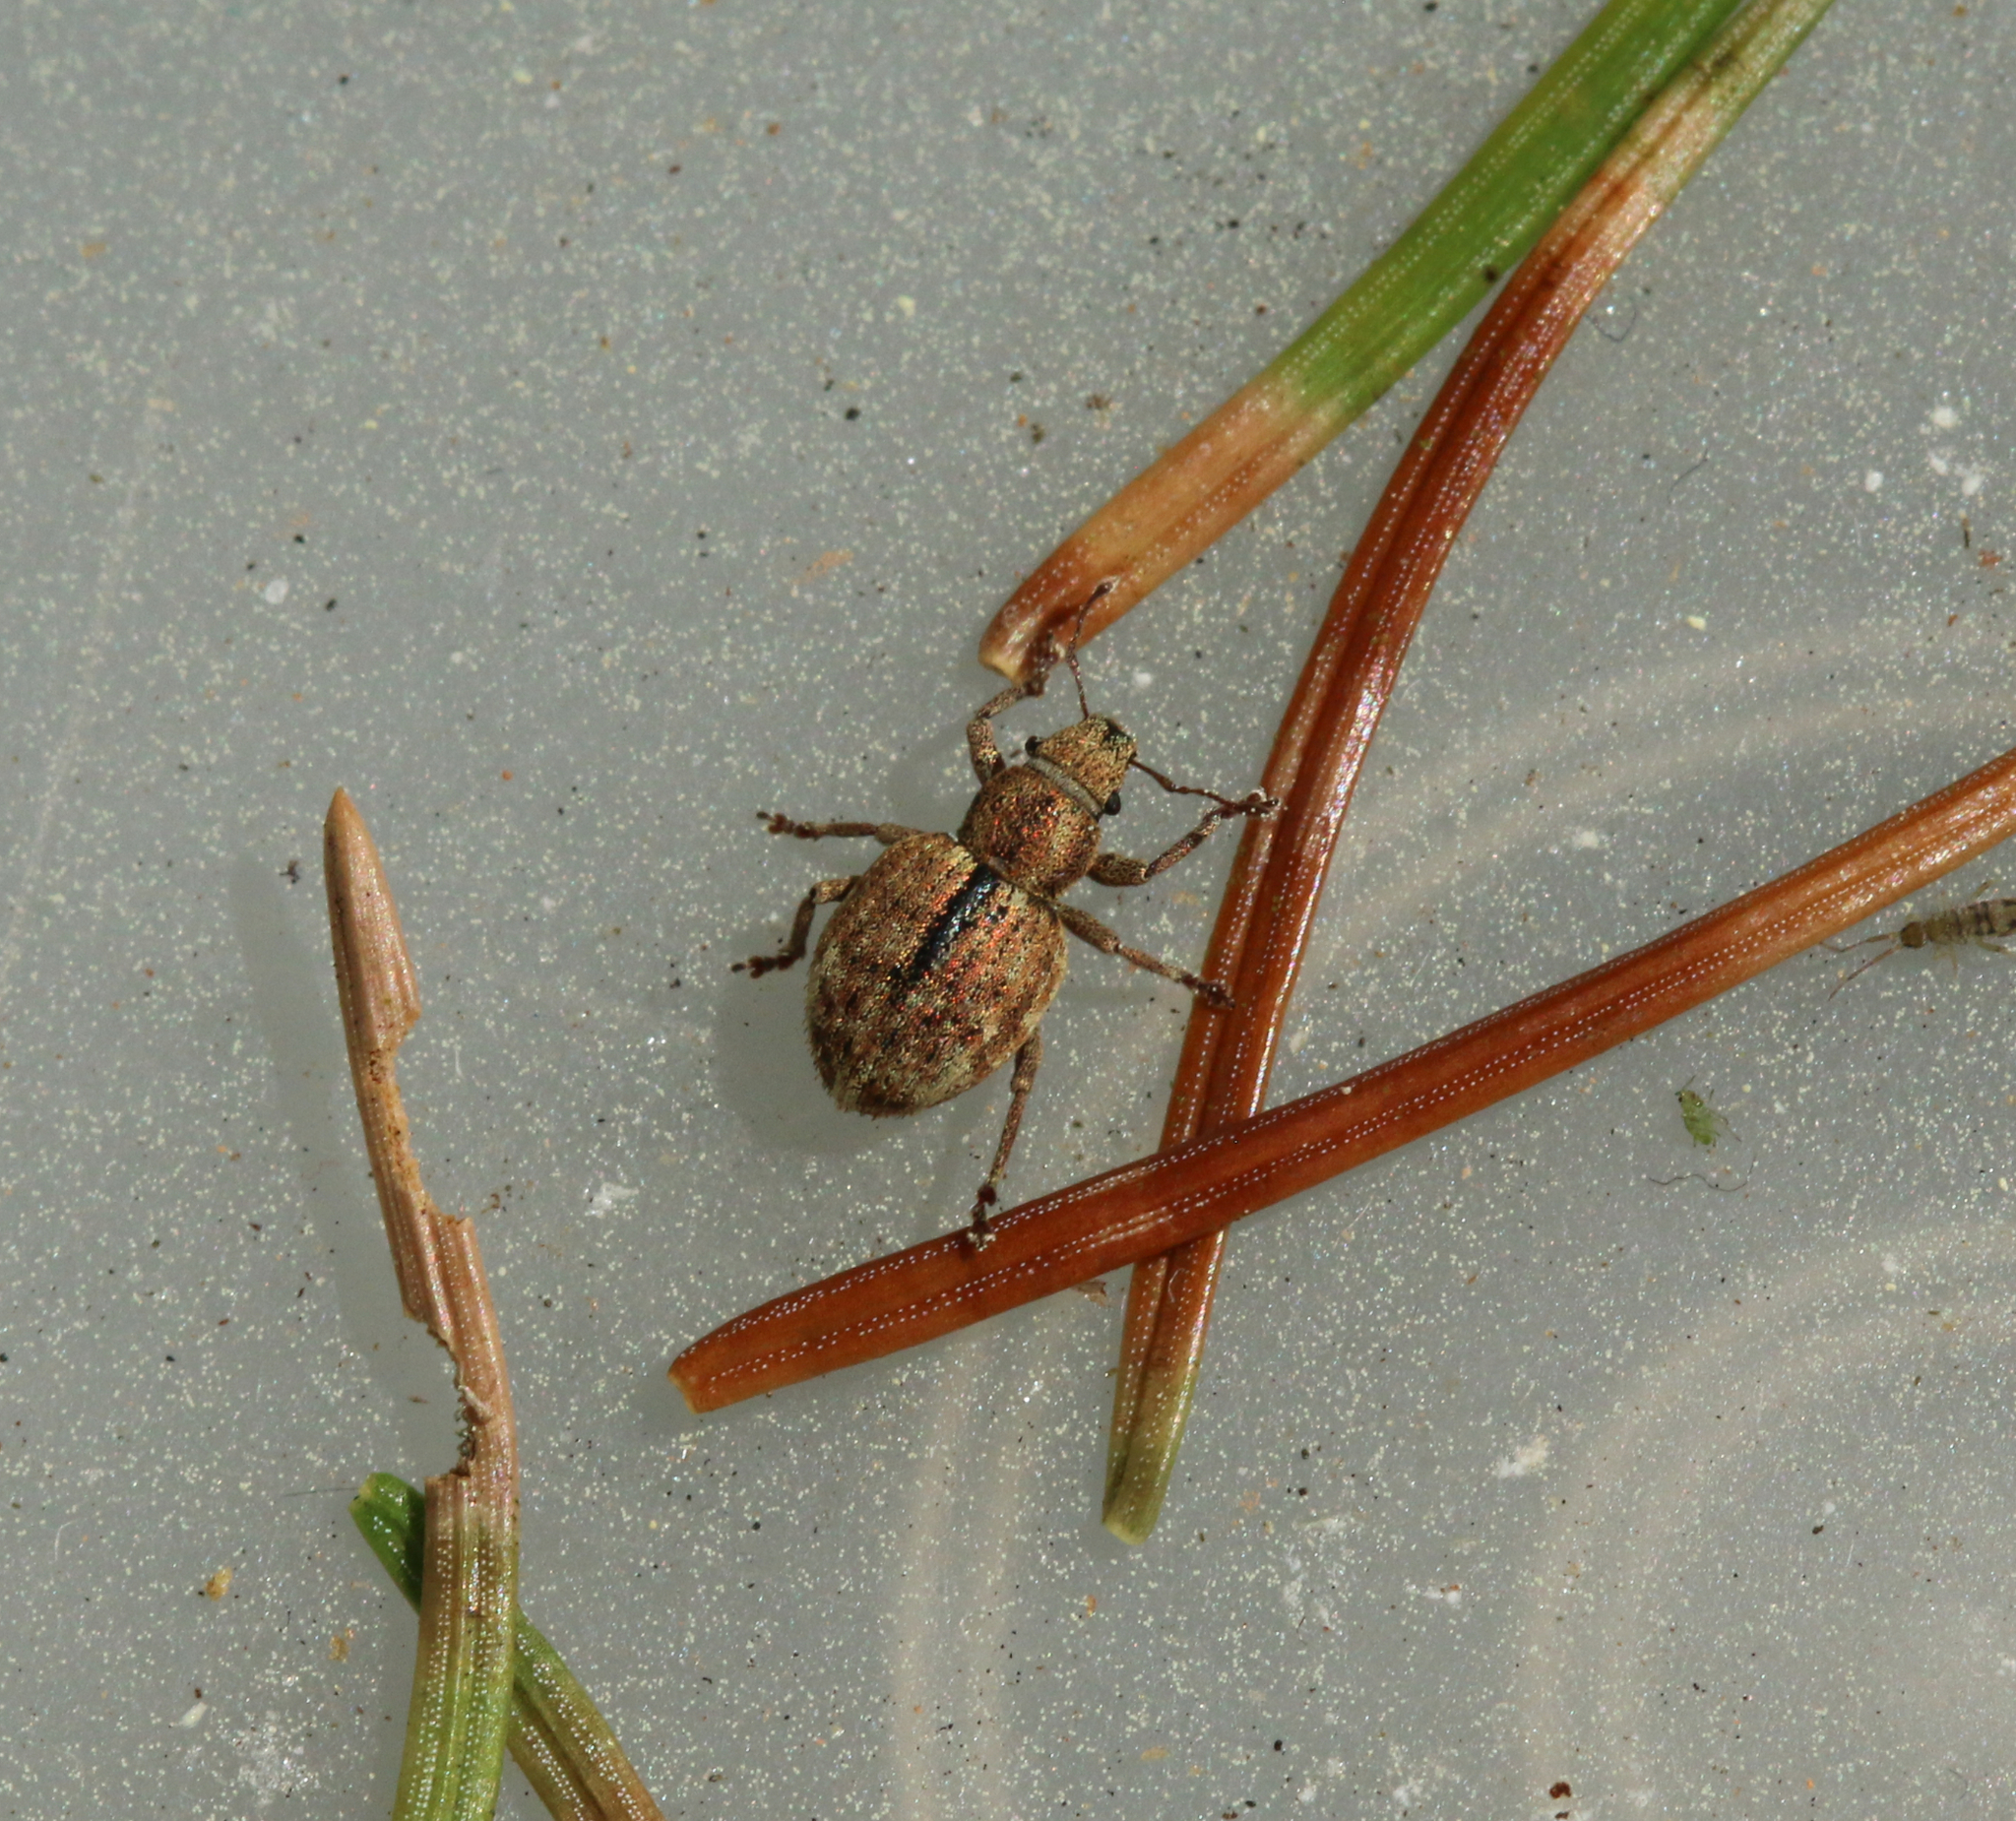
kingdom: Animalia
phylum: Arthropoda
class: Insecta
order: Coleoptera
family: Curculionidae
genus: Strophosoma
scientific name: Strophosoma melanogrammum
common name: Weevil
